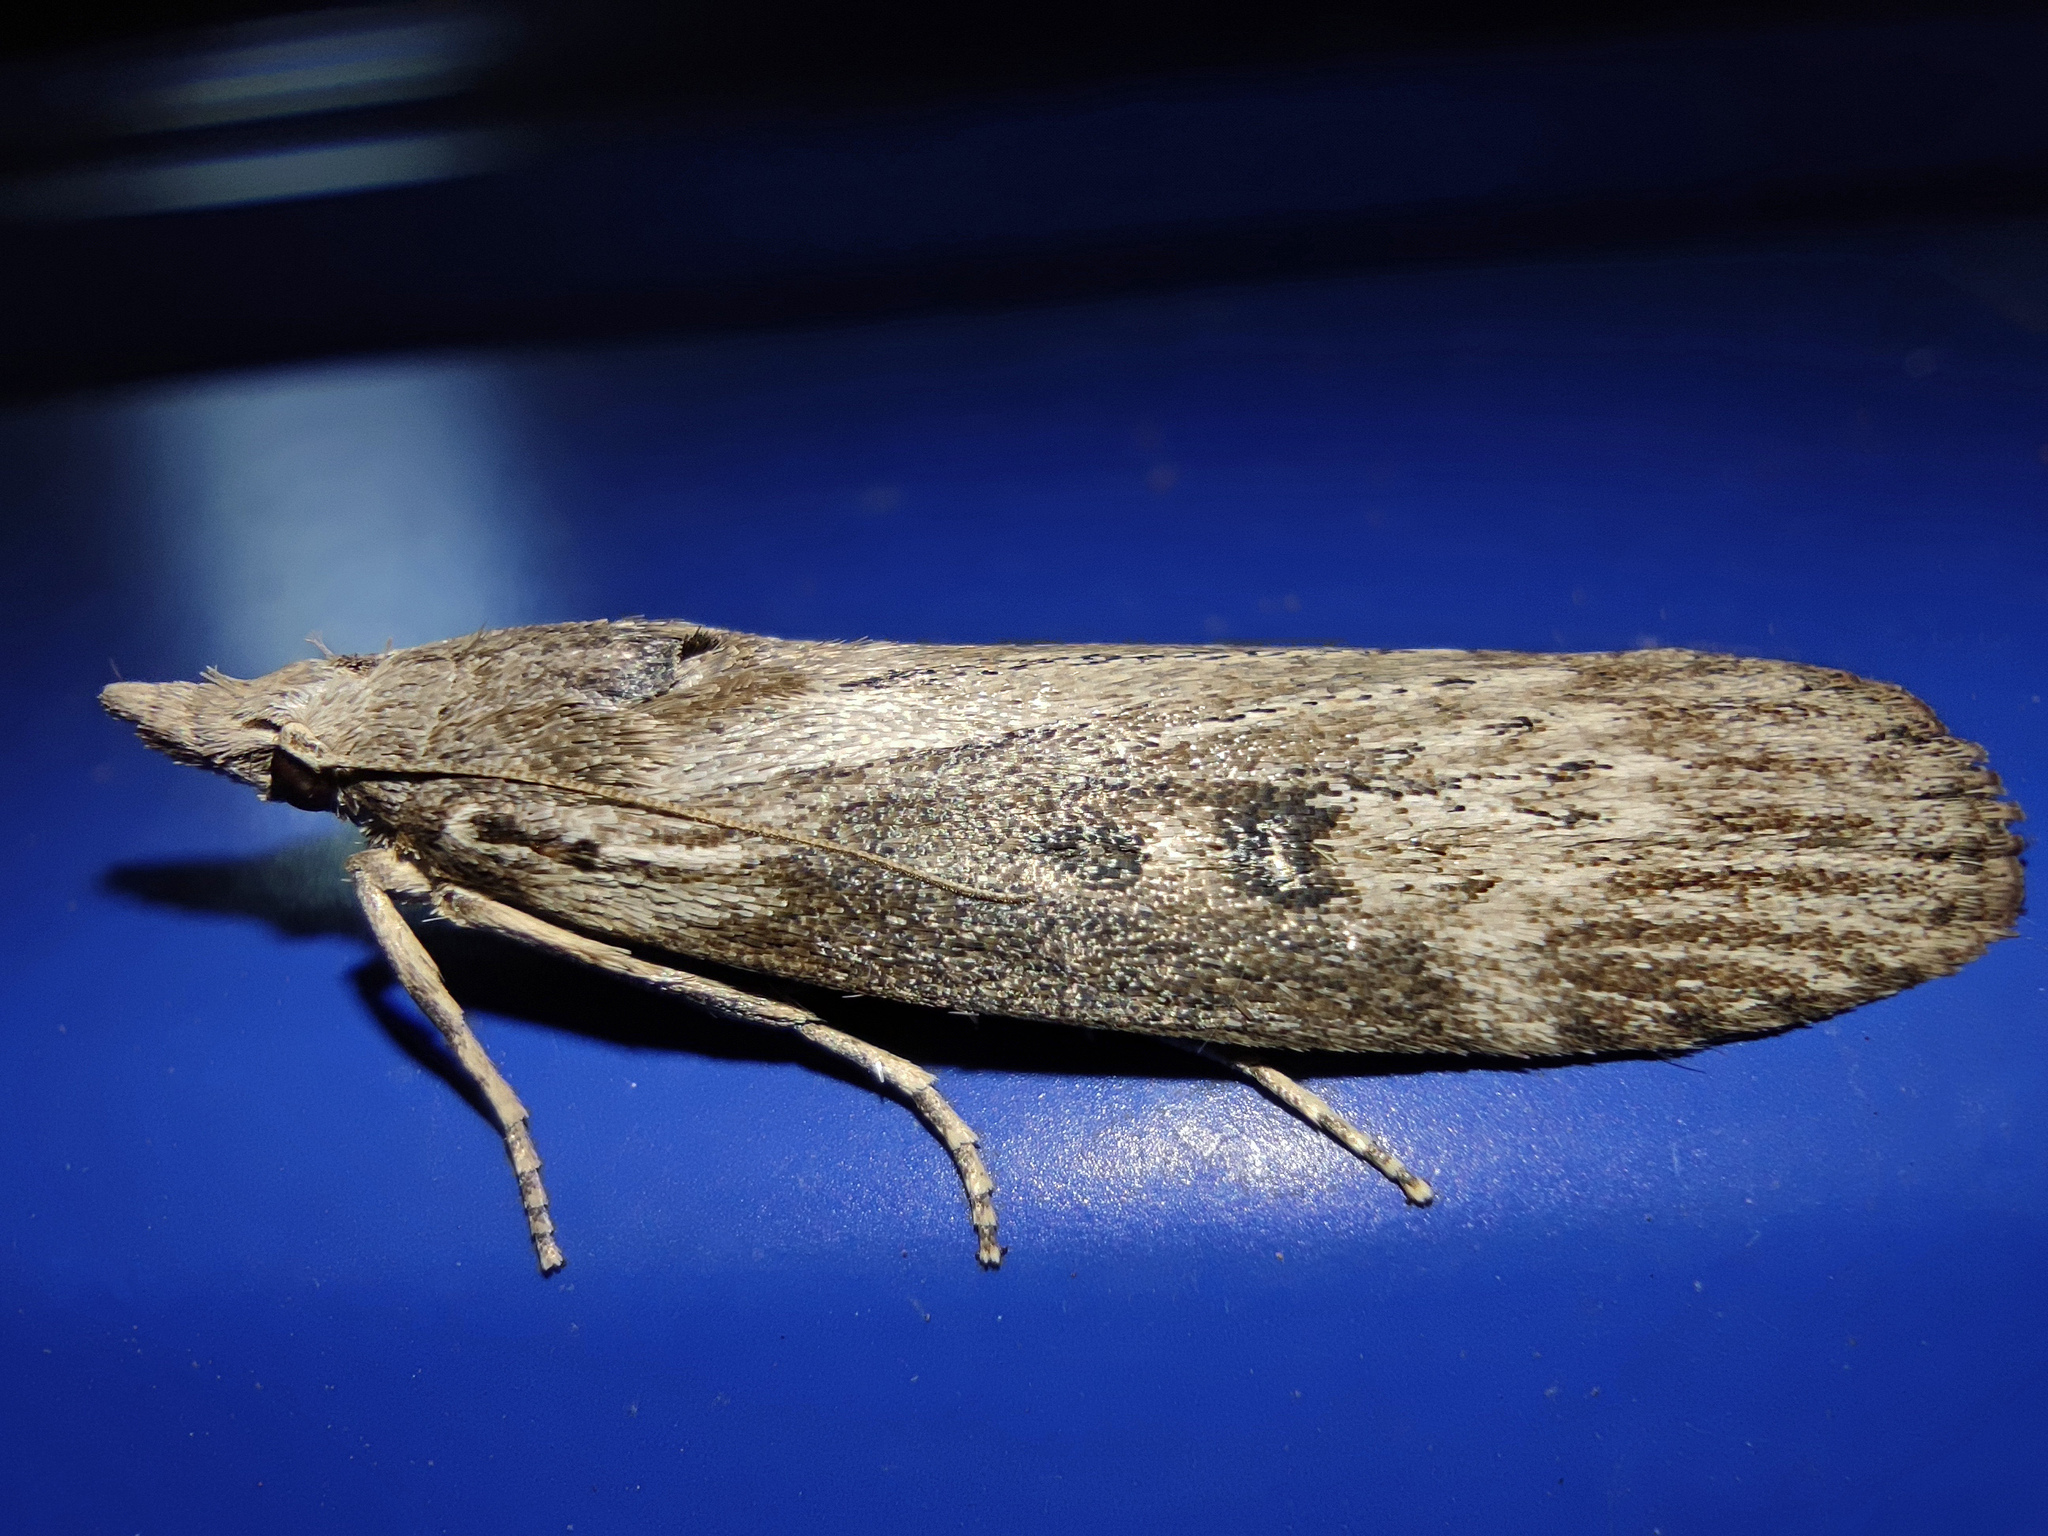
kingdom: Animalia
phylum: Arthropoda
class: Insecta
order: Lepidoptera
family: Pyralidae
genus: Lamoria
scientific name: Lamoria anella
